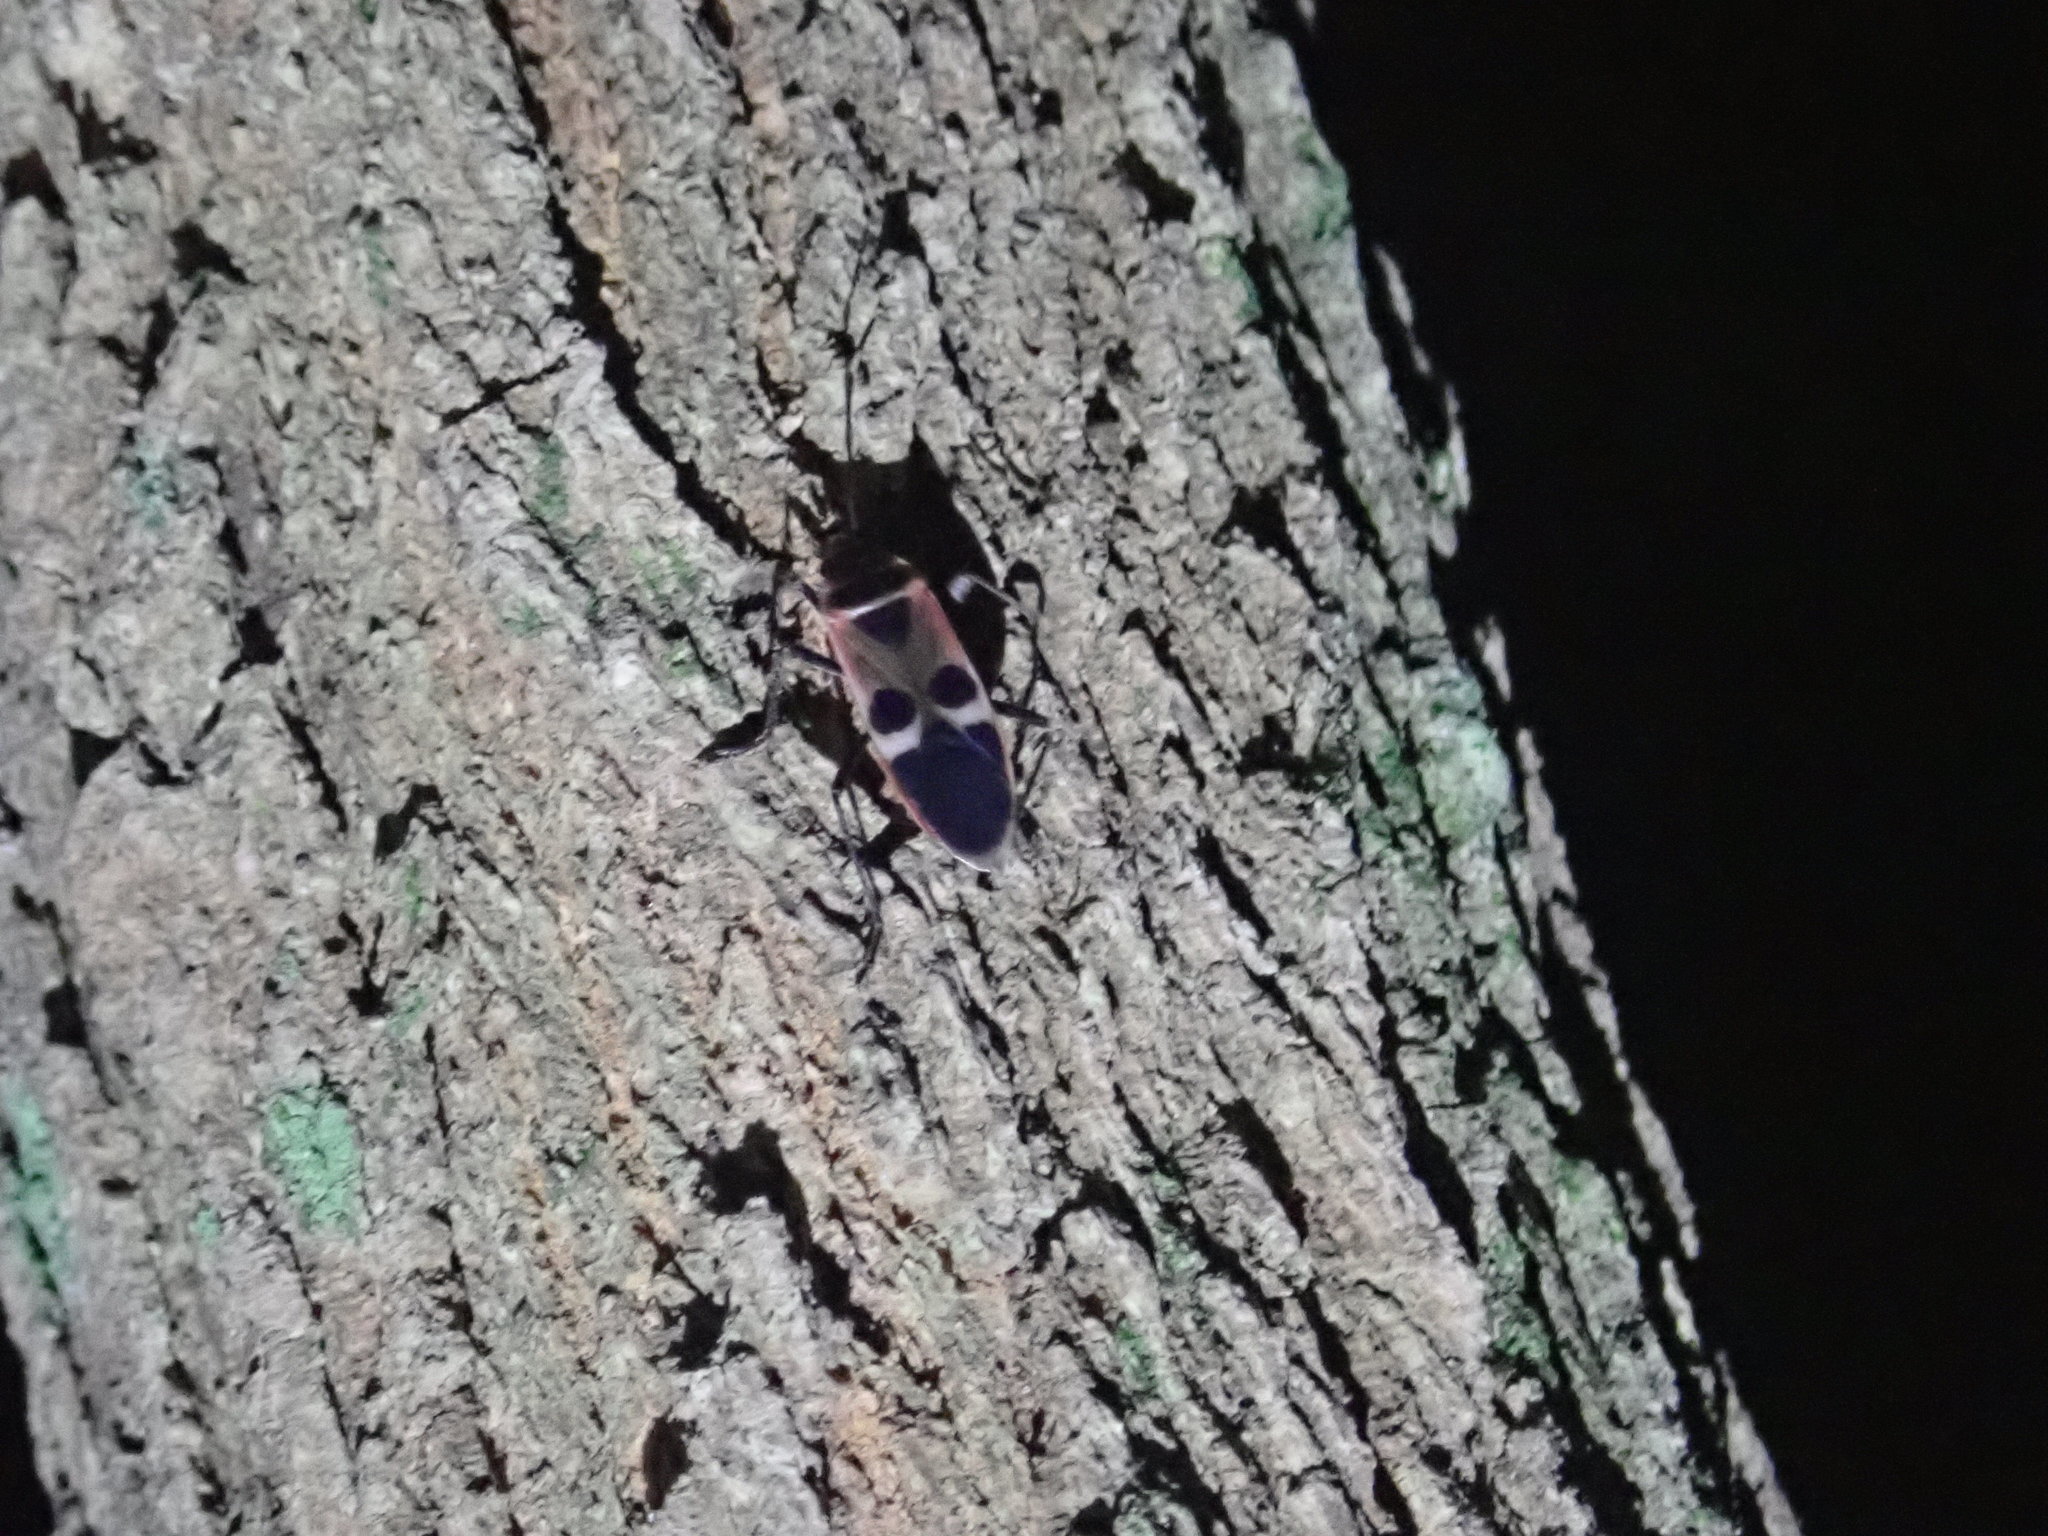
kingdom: Animalia
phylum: Arthropoda
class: Insecta
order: Hemiptera
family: Largidae
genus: Physopelta
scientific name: Physopelta gutta
